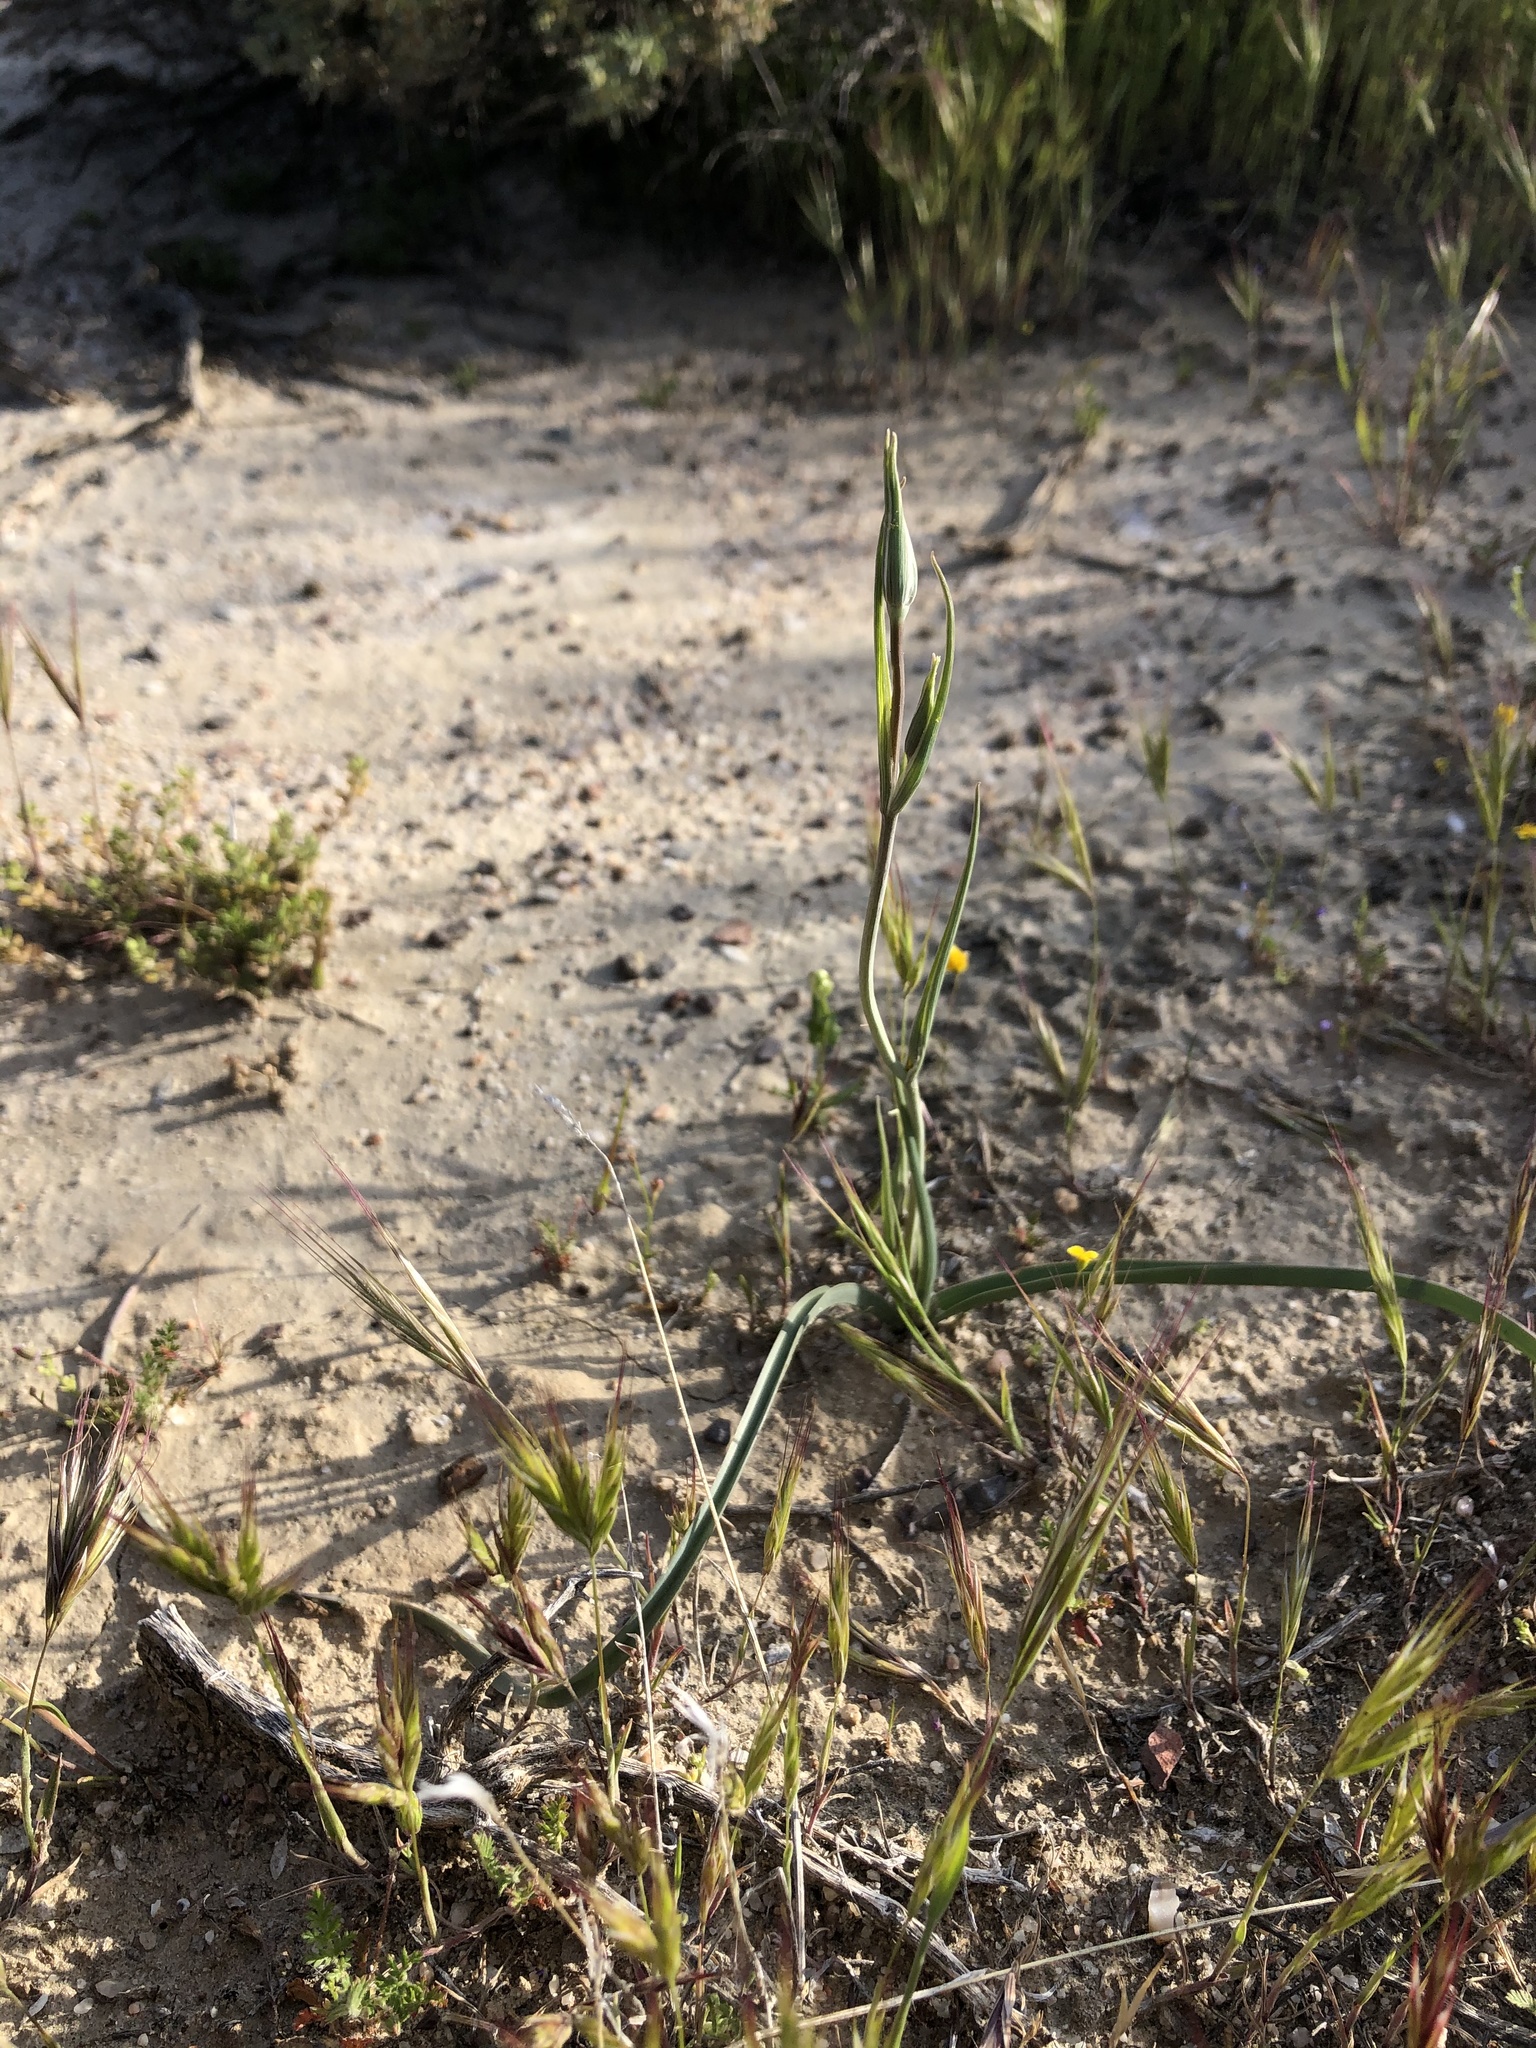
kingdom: Plantae
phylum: Tracheophyta
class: Liliopsida
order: Liliales
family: Liliaceae
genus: Calochortus
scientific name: Calochortus striatus
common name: Alkali mariposa-lily
